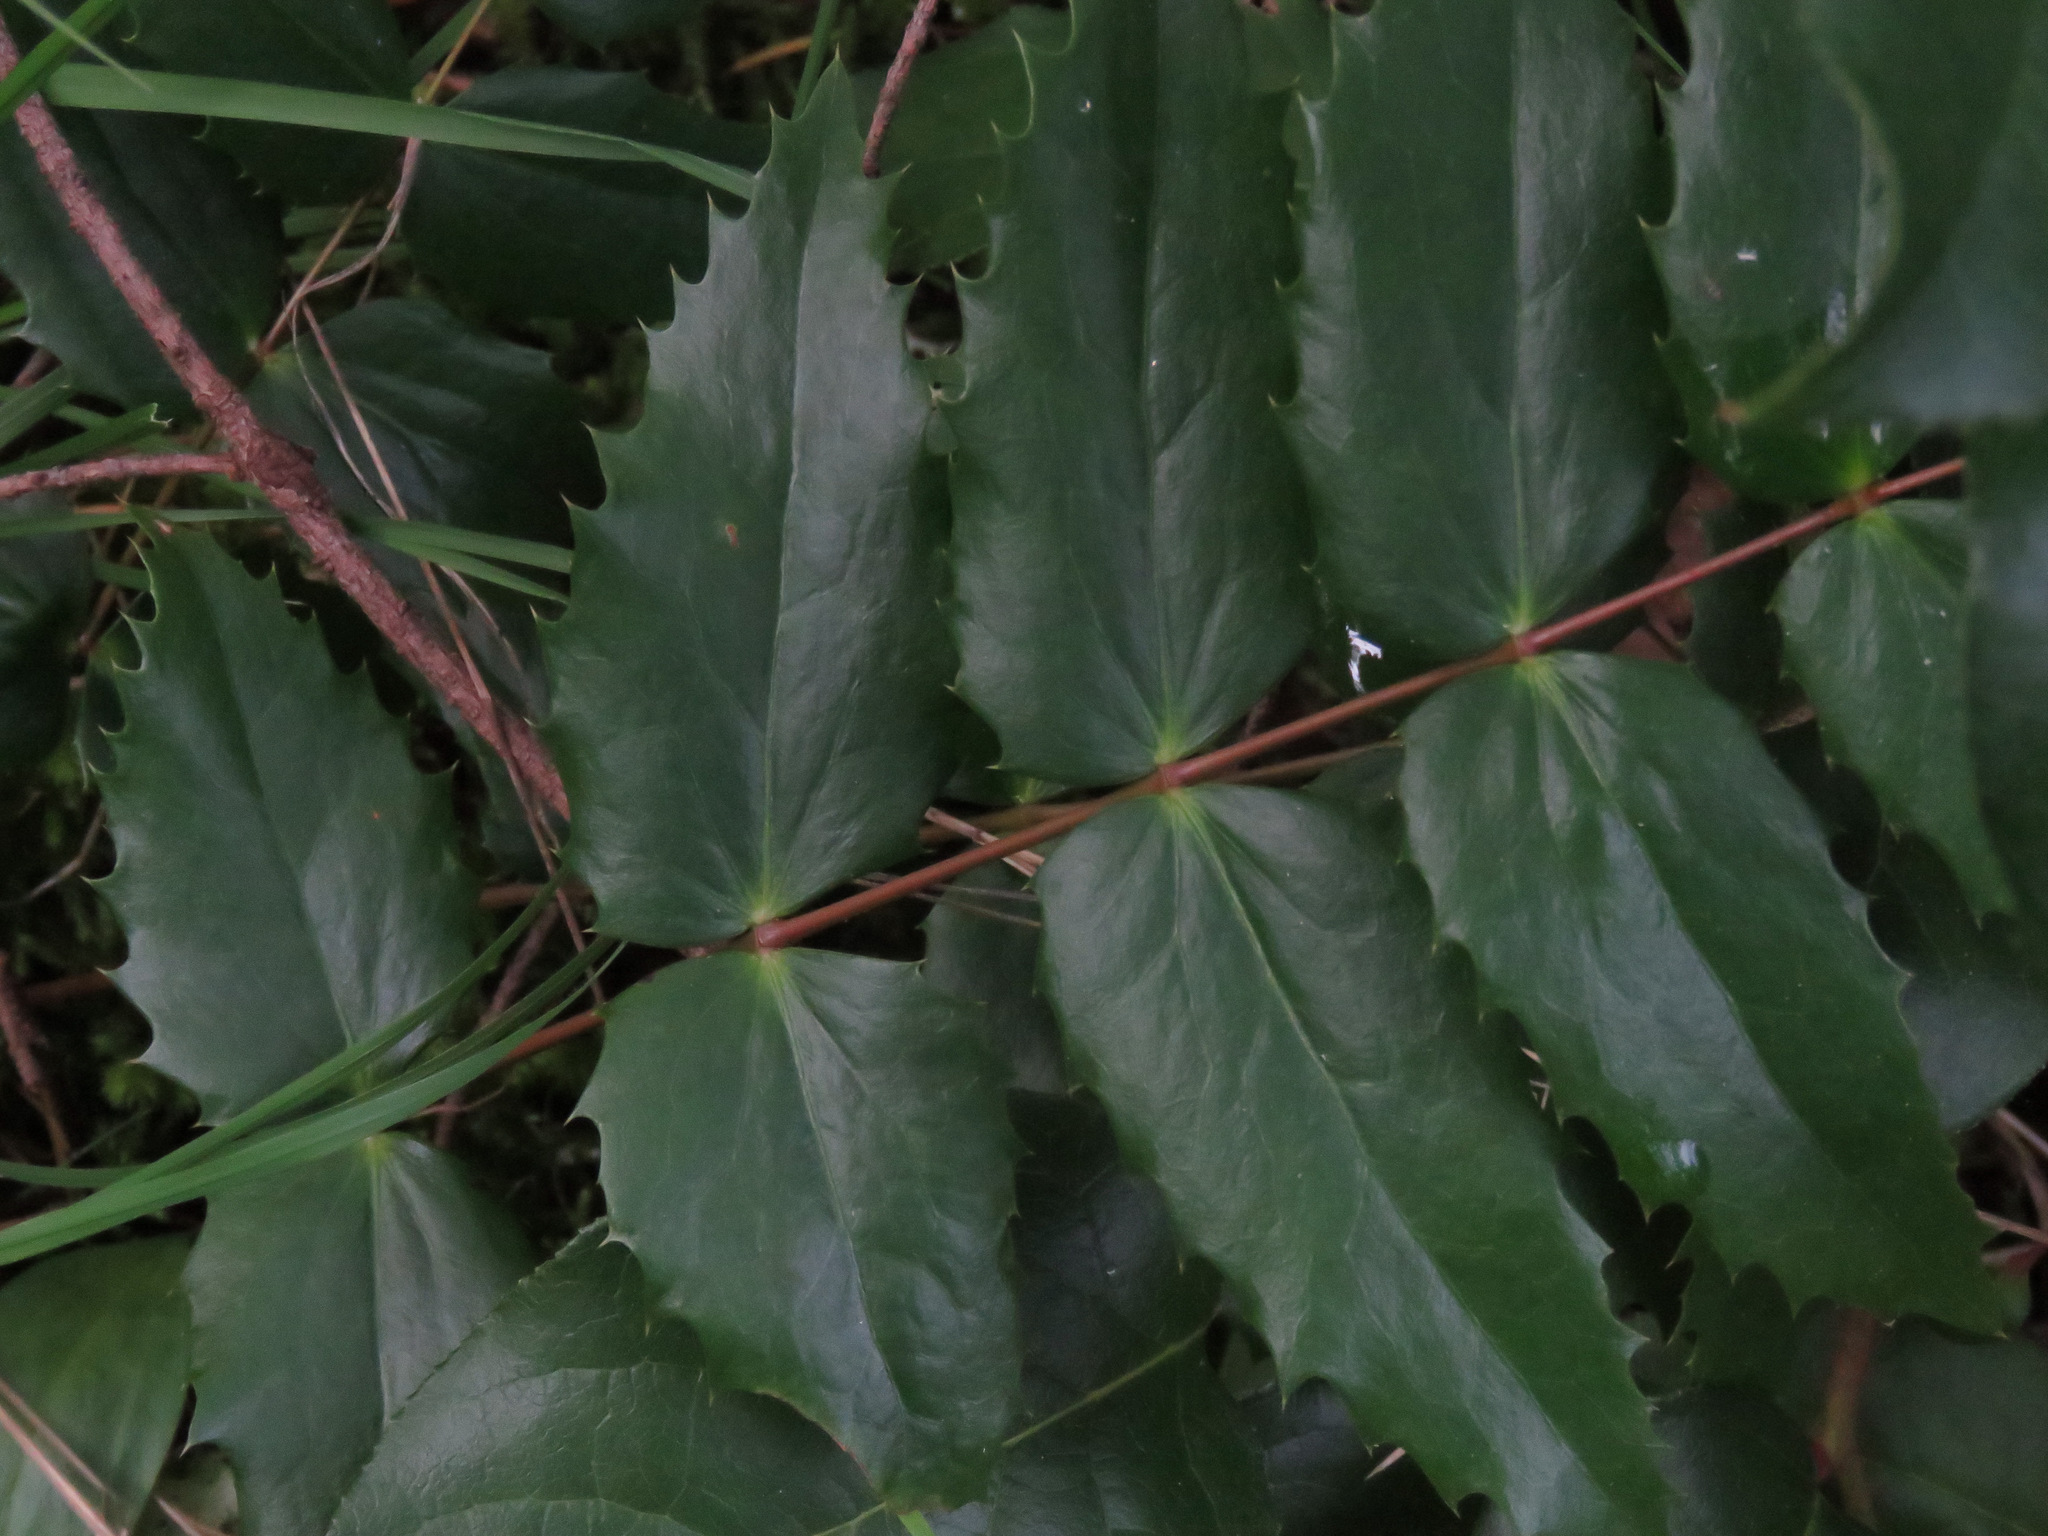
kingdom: Plantae
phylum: Tracheophyta
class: Magnoliopsida
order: Ranunculales
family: Berberidaceae
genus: Mahonia
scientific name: Mahonia nervosa
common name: Cascade oregon-grape
